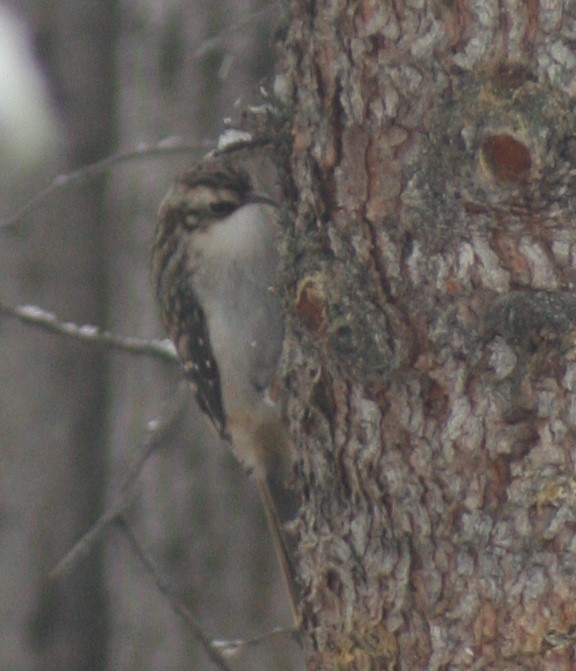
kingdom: Animalia
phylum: Chordata
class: Aves
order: Passeriformes
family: Certhiidae
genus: Certhia
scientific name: Certhia americana
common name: Brown creeper
